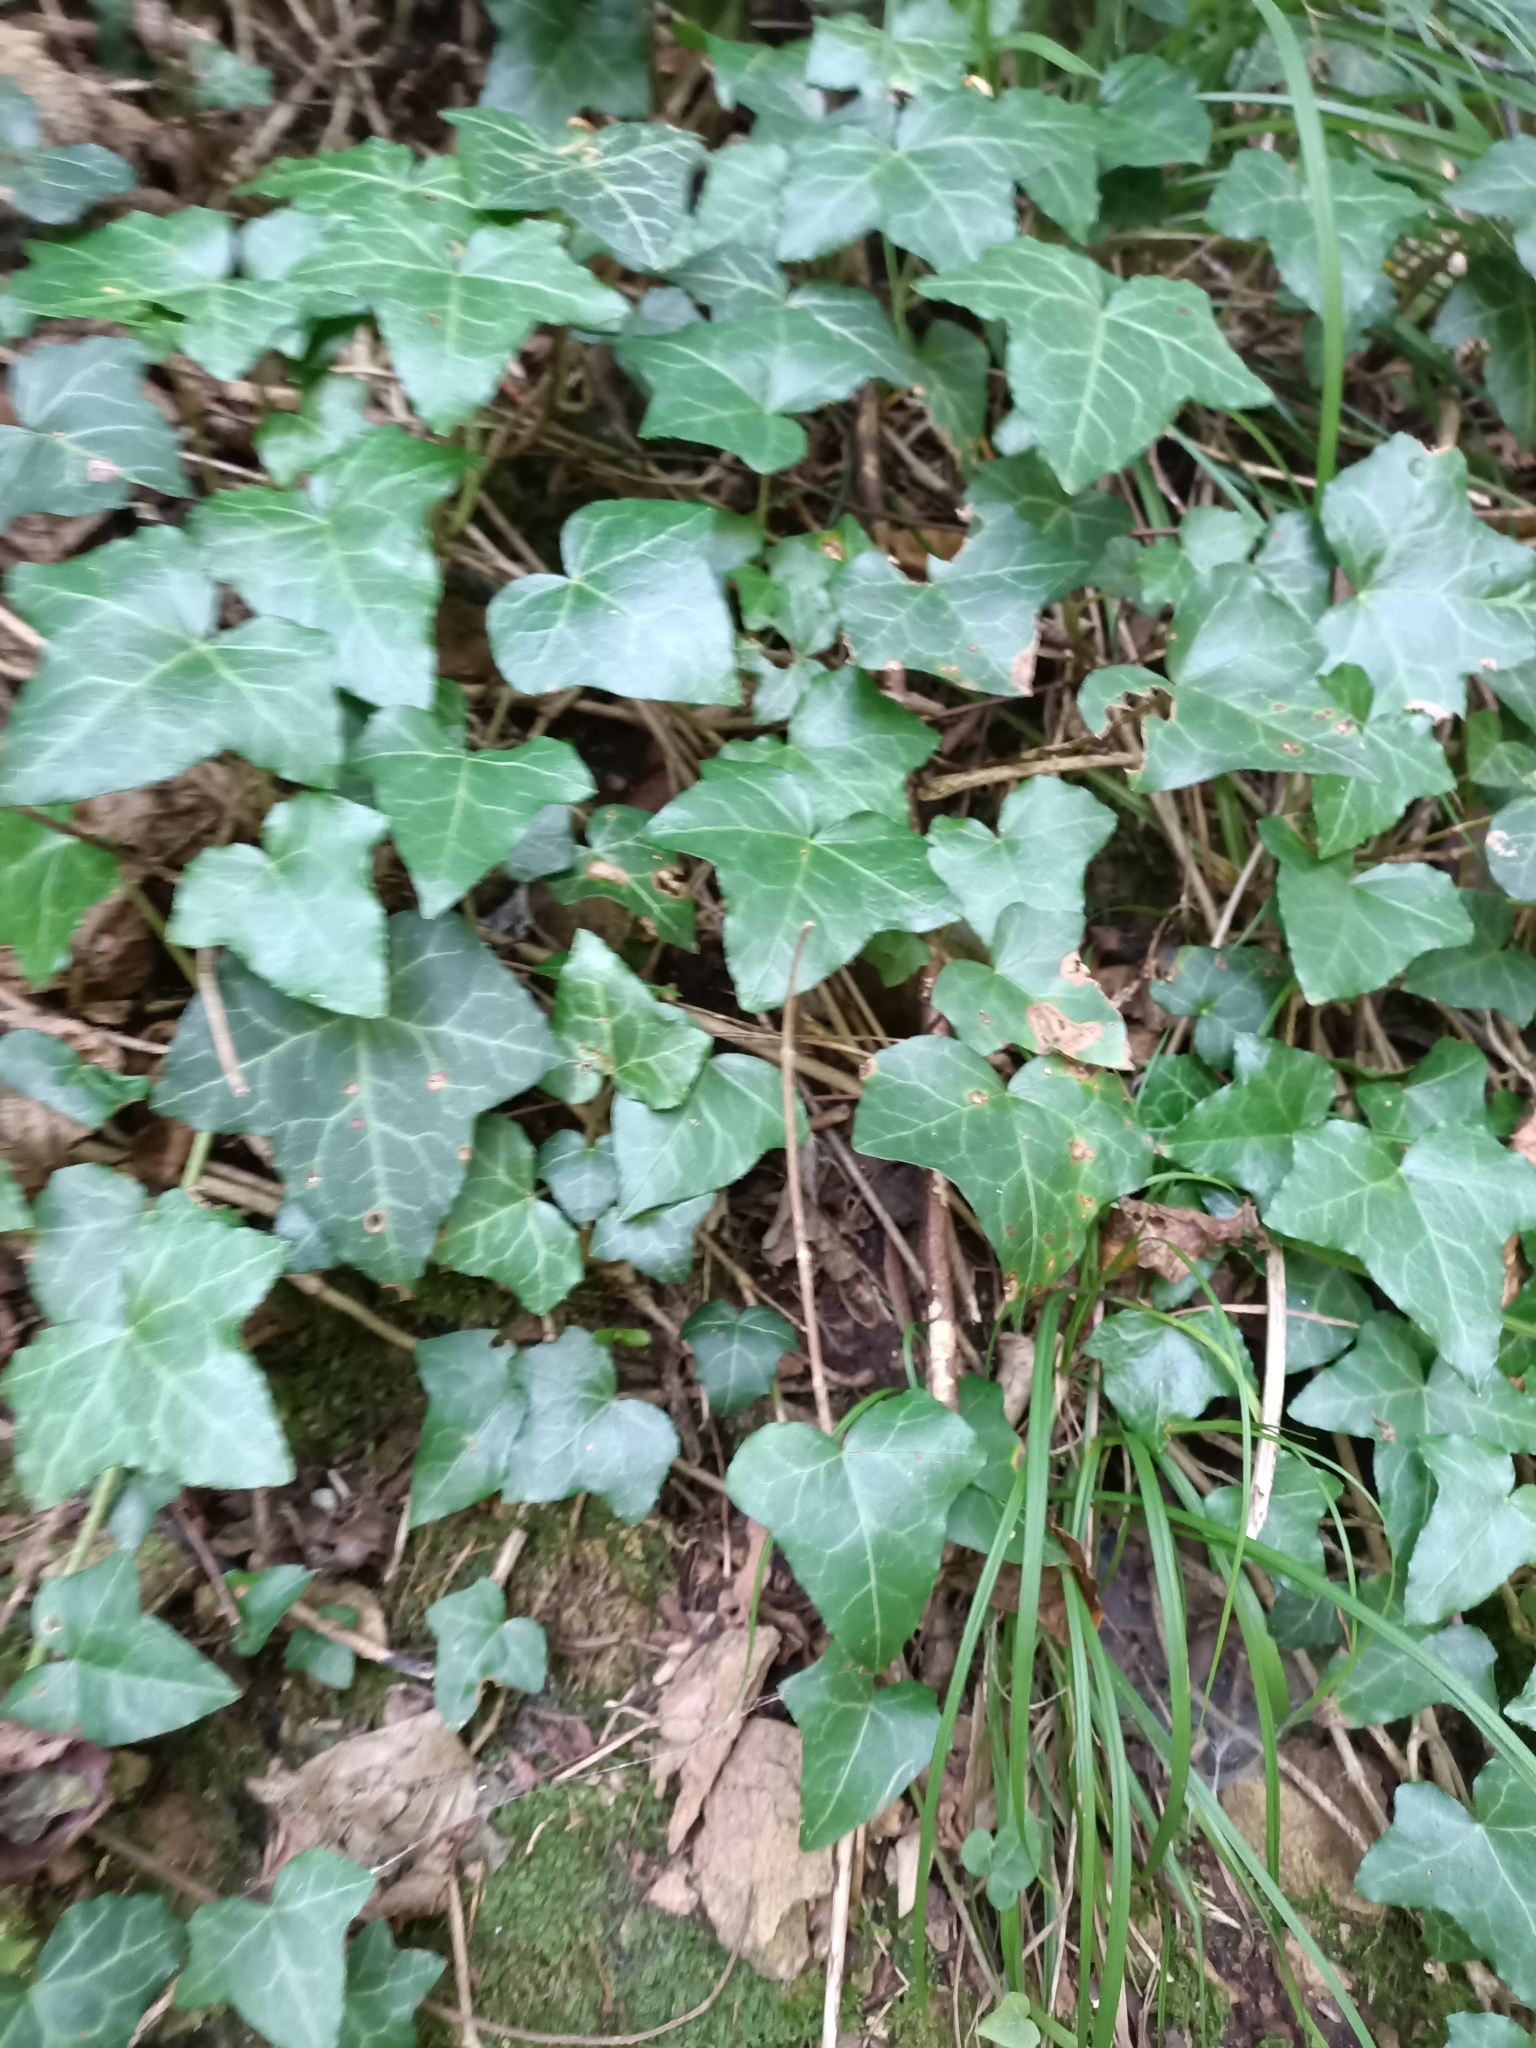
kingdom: Plantae
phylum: Tracheophyta
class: Magnoliopsida
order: Apiales
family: Araliaceae
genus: Hedera
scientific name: Hedera helix
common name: Ivy
